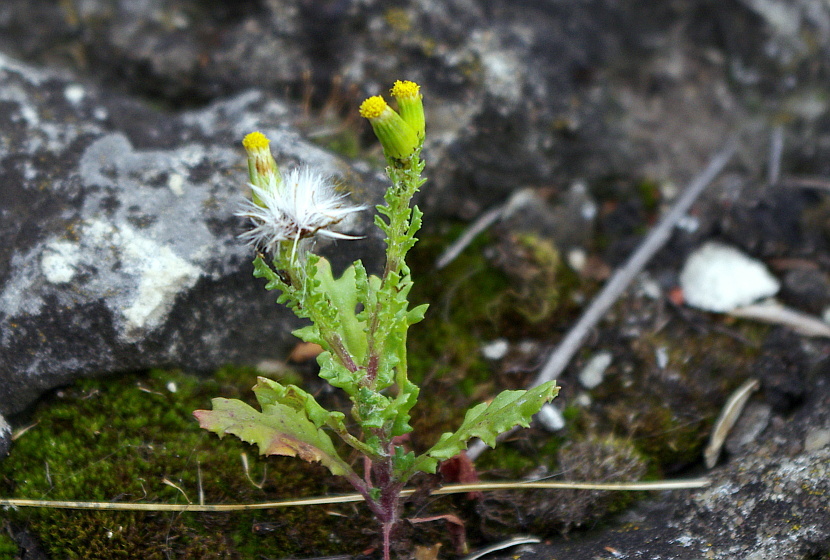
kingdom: Plantae
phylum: Tracheophyta
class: Magnoliopsida
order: Asterales
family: Asteraceae
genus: Senecio
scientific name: Senecio vulgaris
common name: Old-man-in-the-spring
